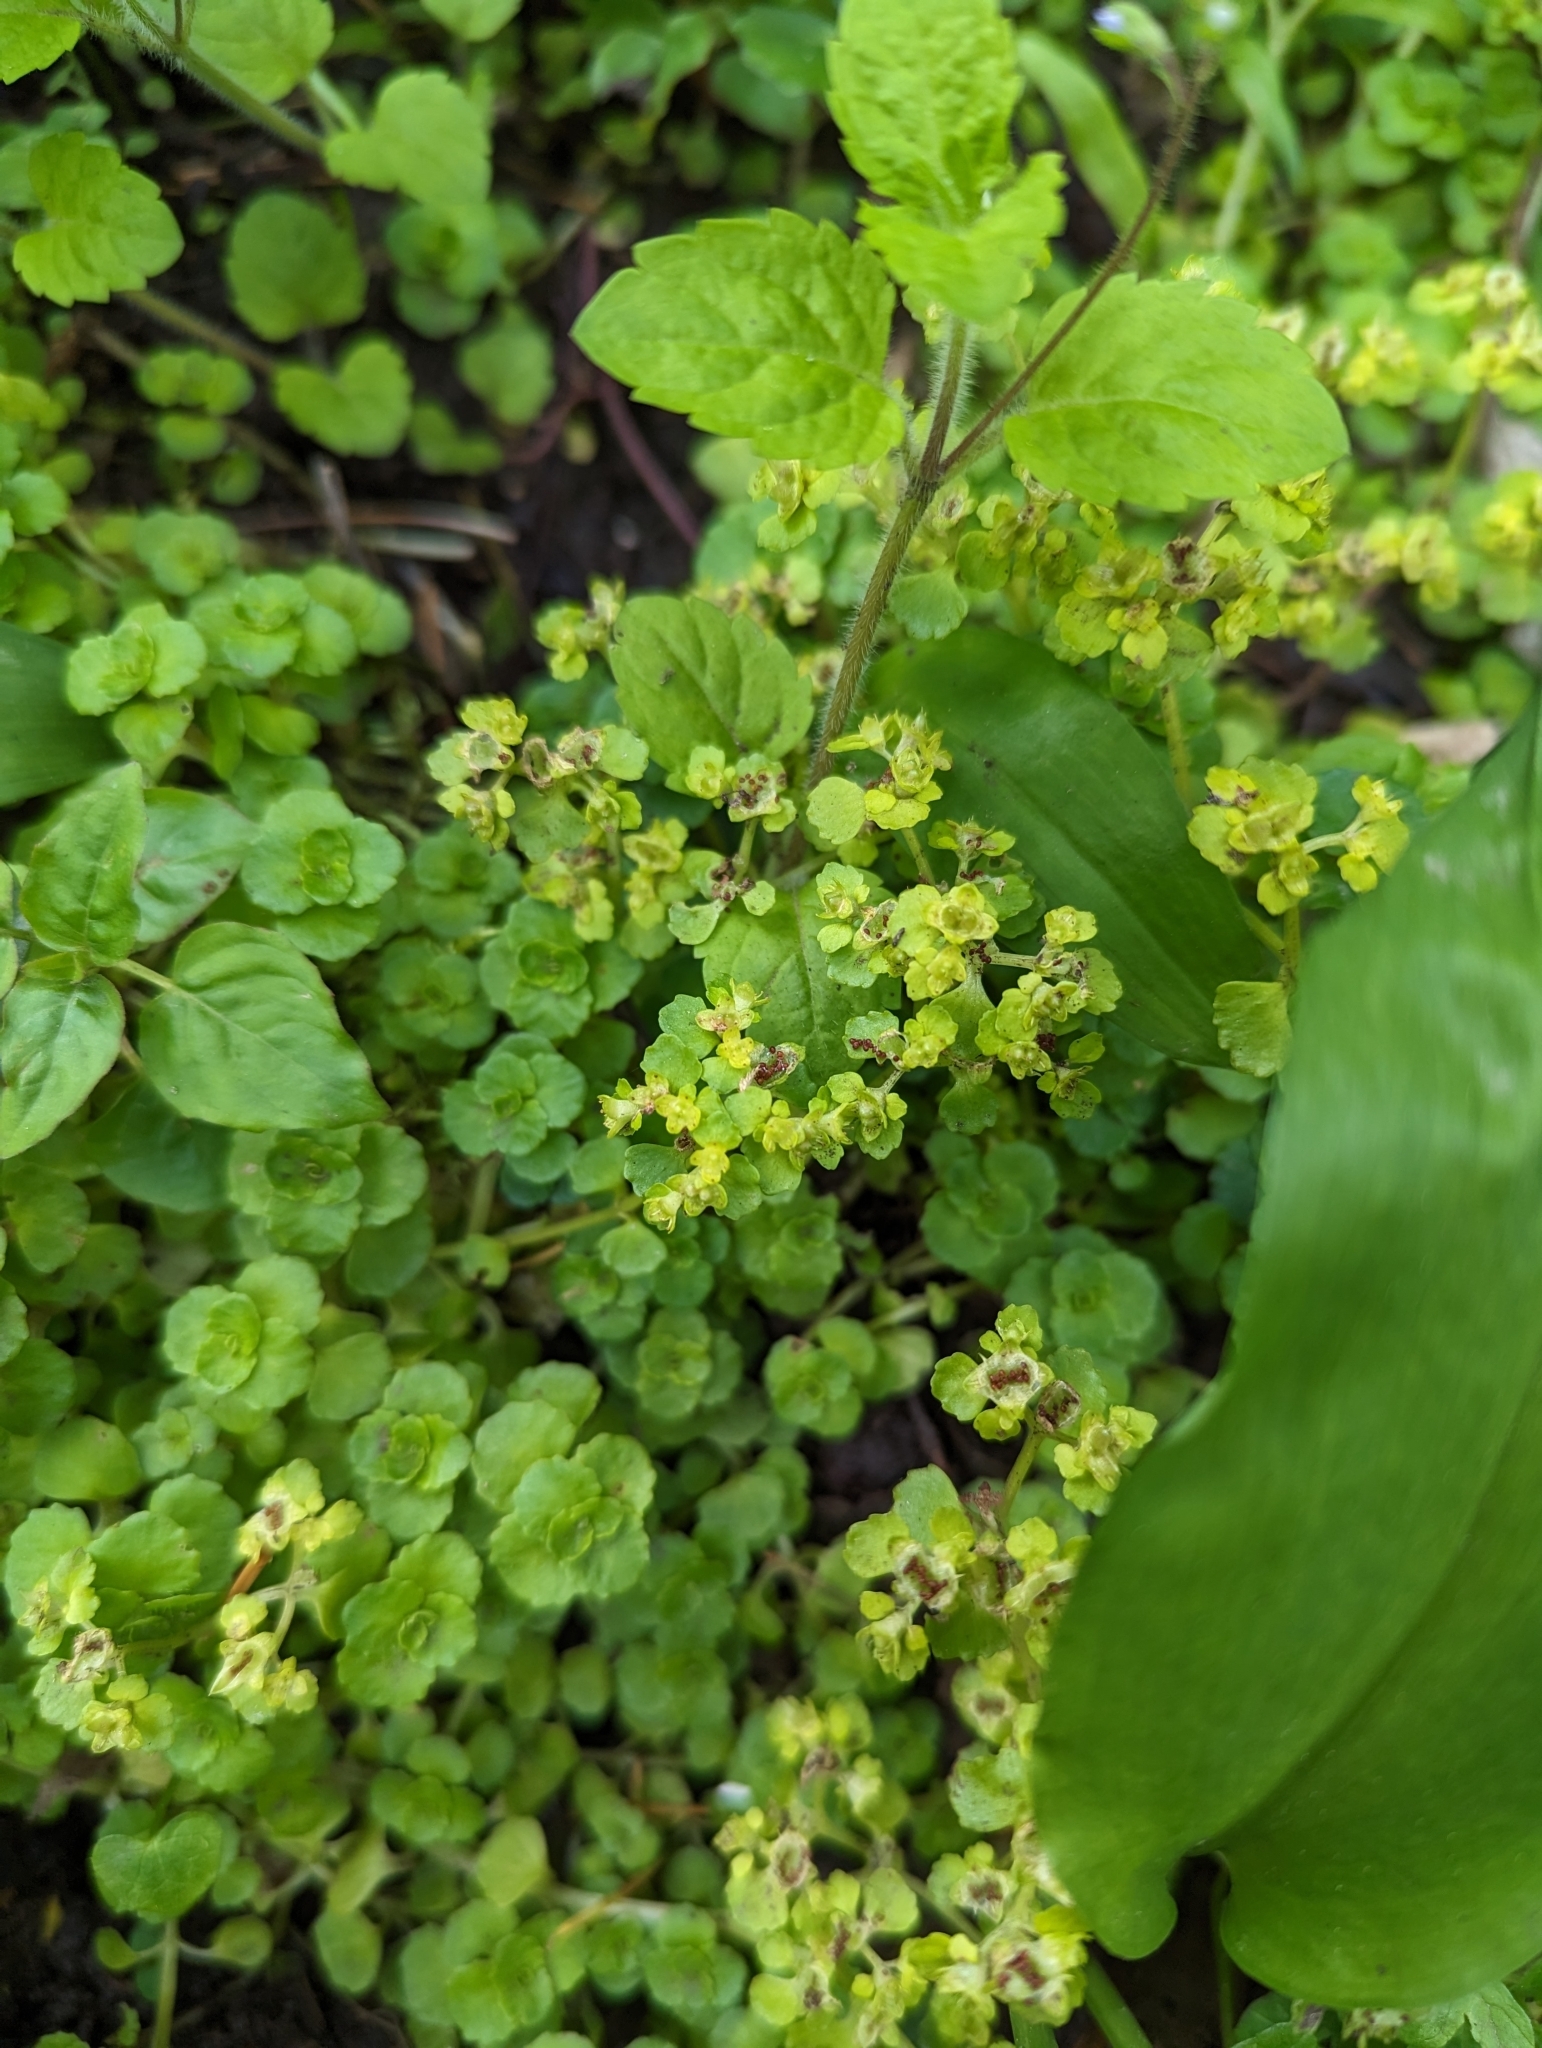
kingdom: Plantae
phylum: Tracheophyta
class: Magnoliopsida
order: Saxifragales
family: Saxifragaceae
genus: Chrysosplenium
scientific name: Chrysosplenium oppositifolium
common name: Opposite-leaved golden-saxifrage
